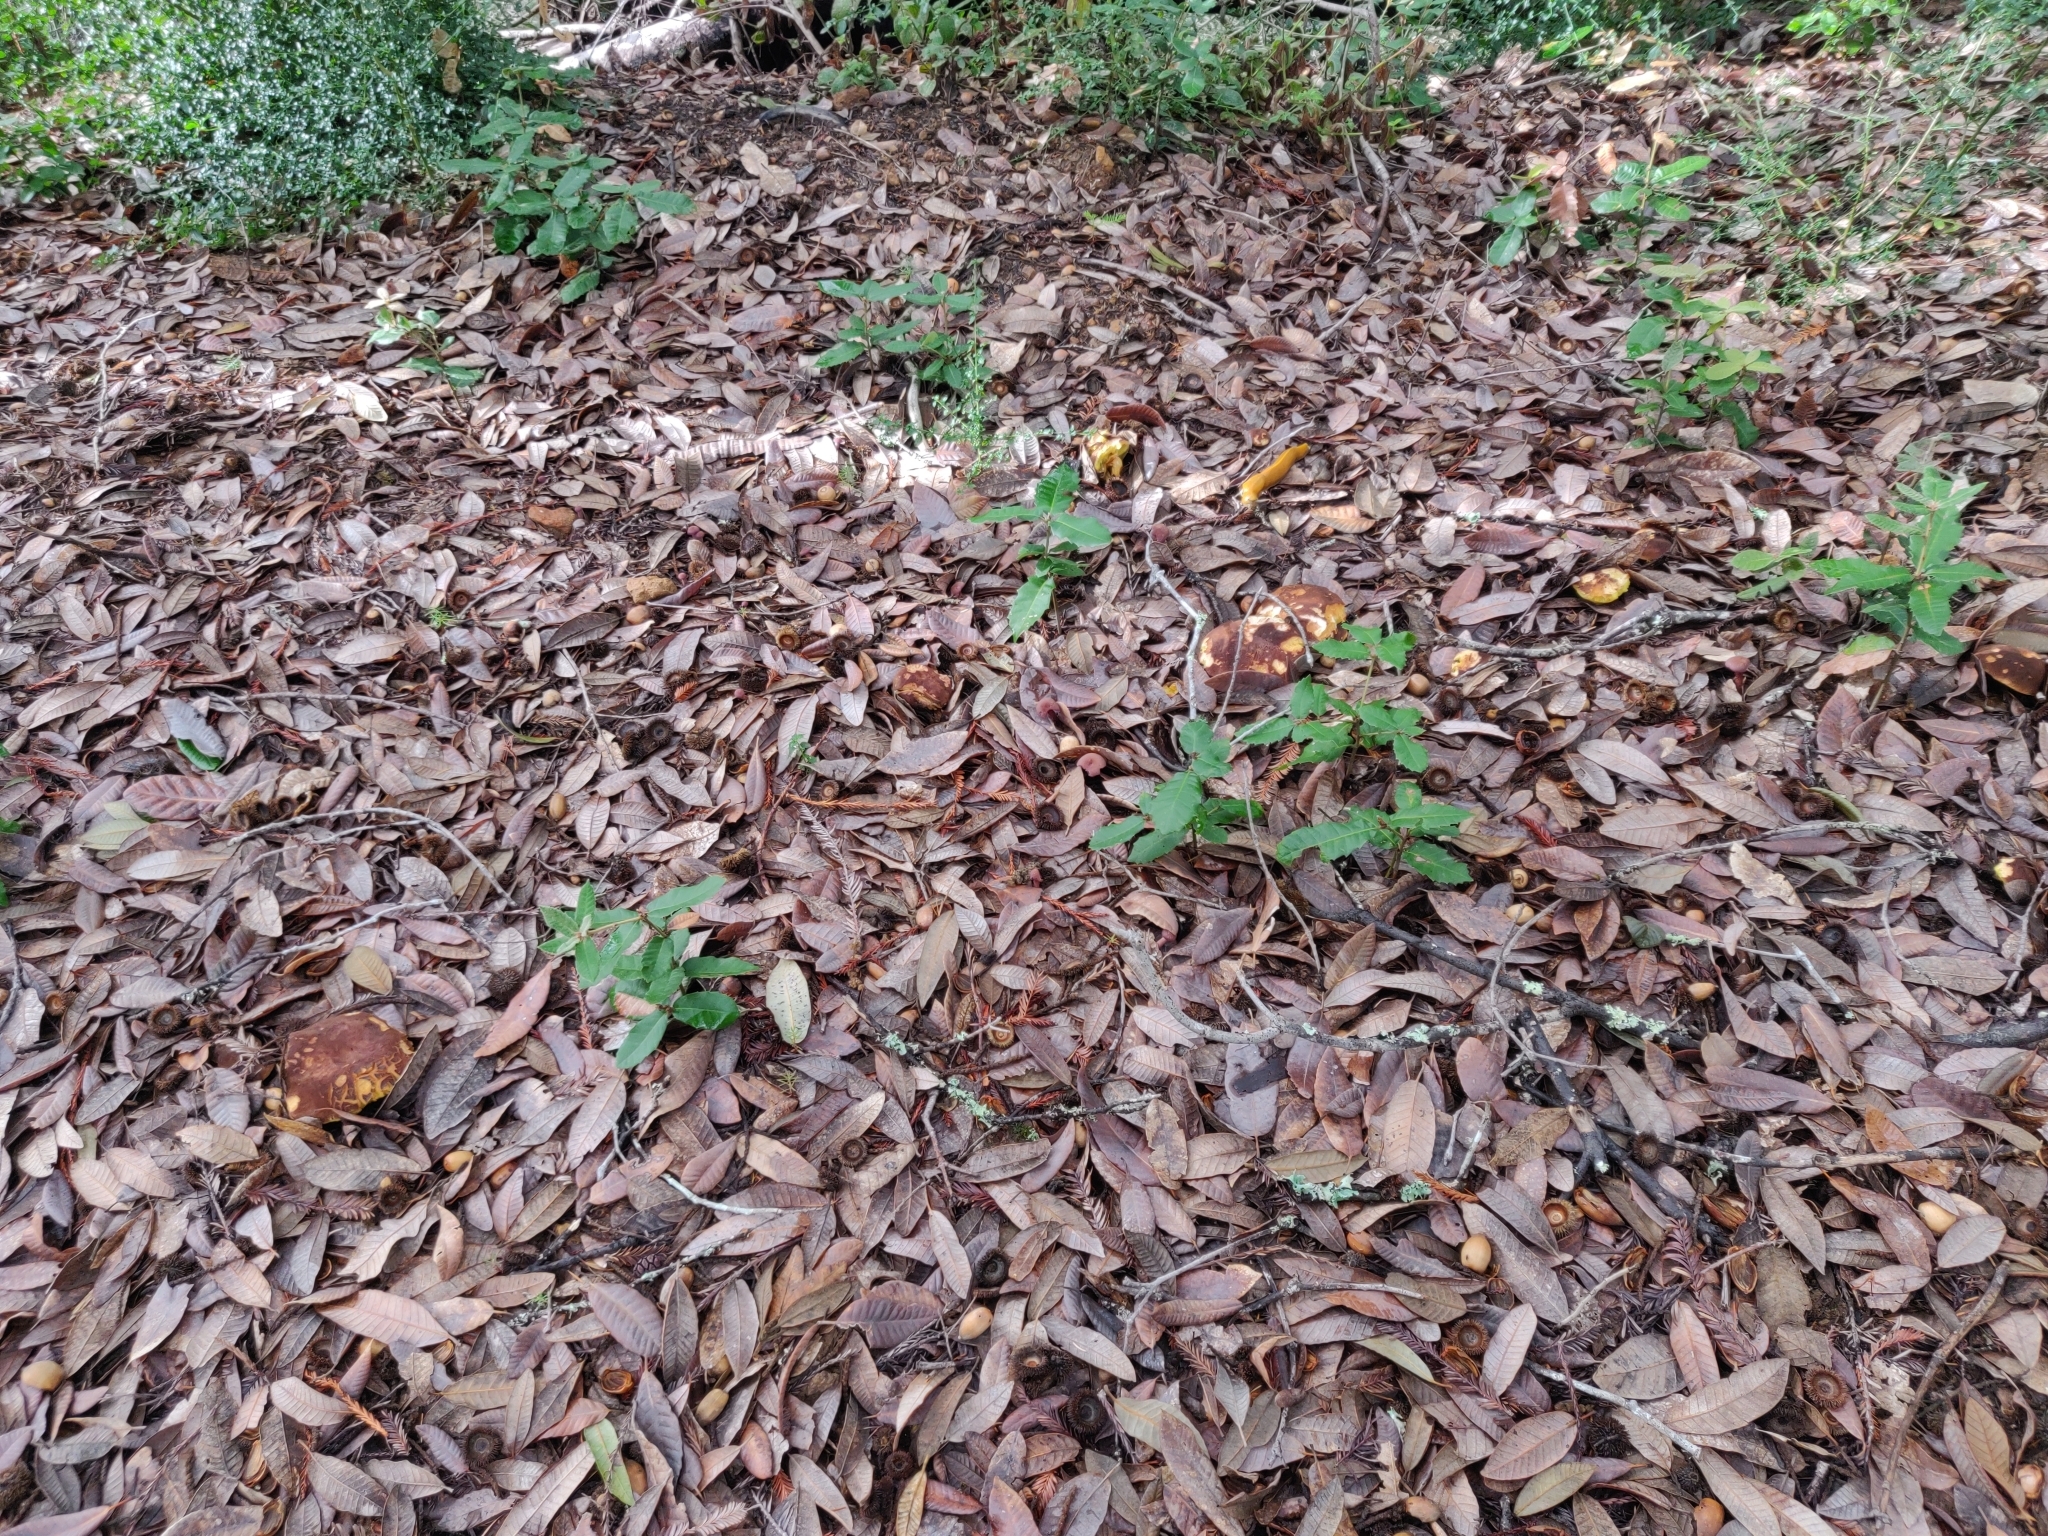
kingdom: Fungi
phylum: Basidiomycota
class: Agaricomycetes
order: Boletales
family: Boletaceae
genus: Xerocomus
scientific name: Xerocomus subtomentosus
